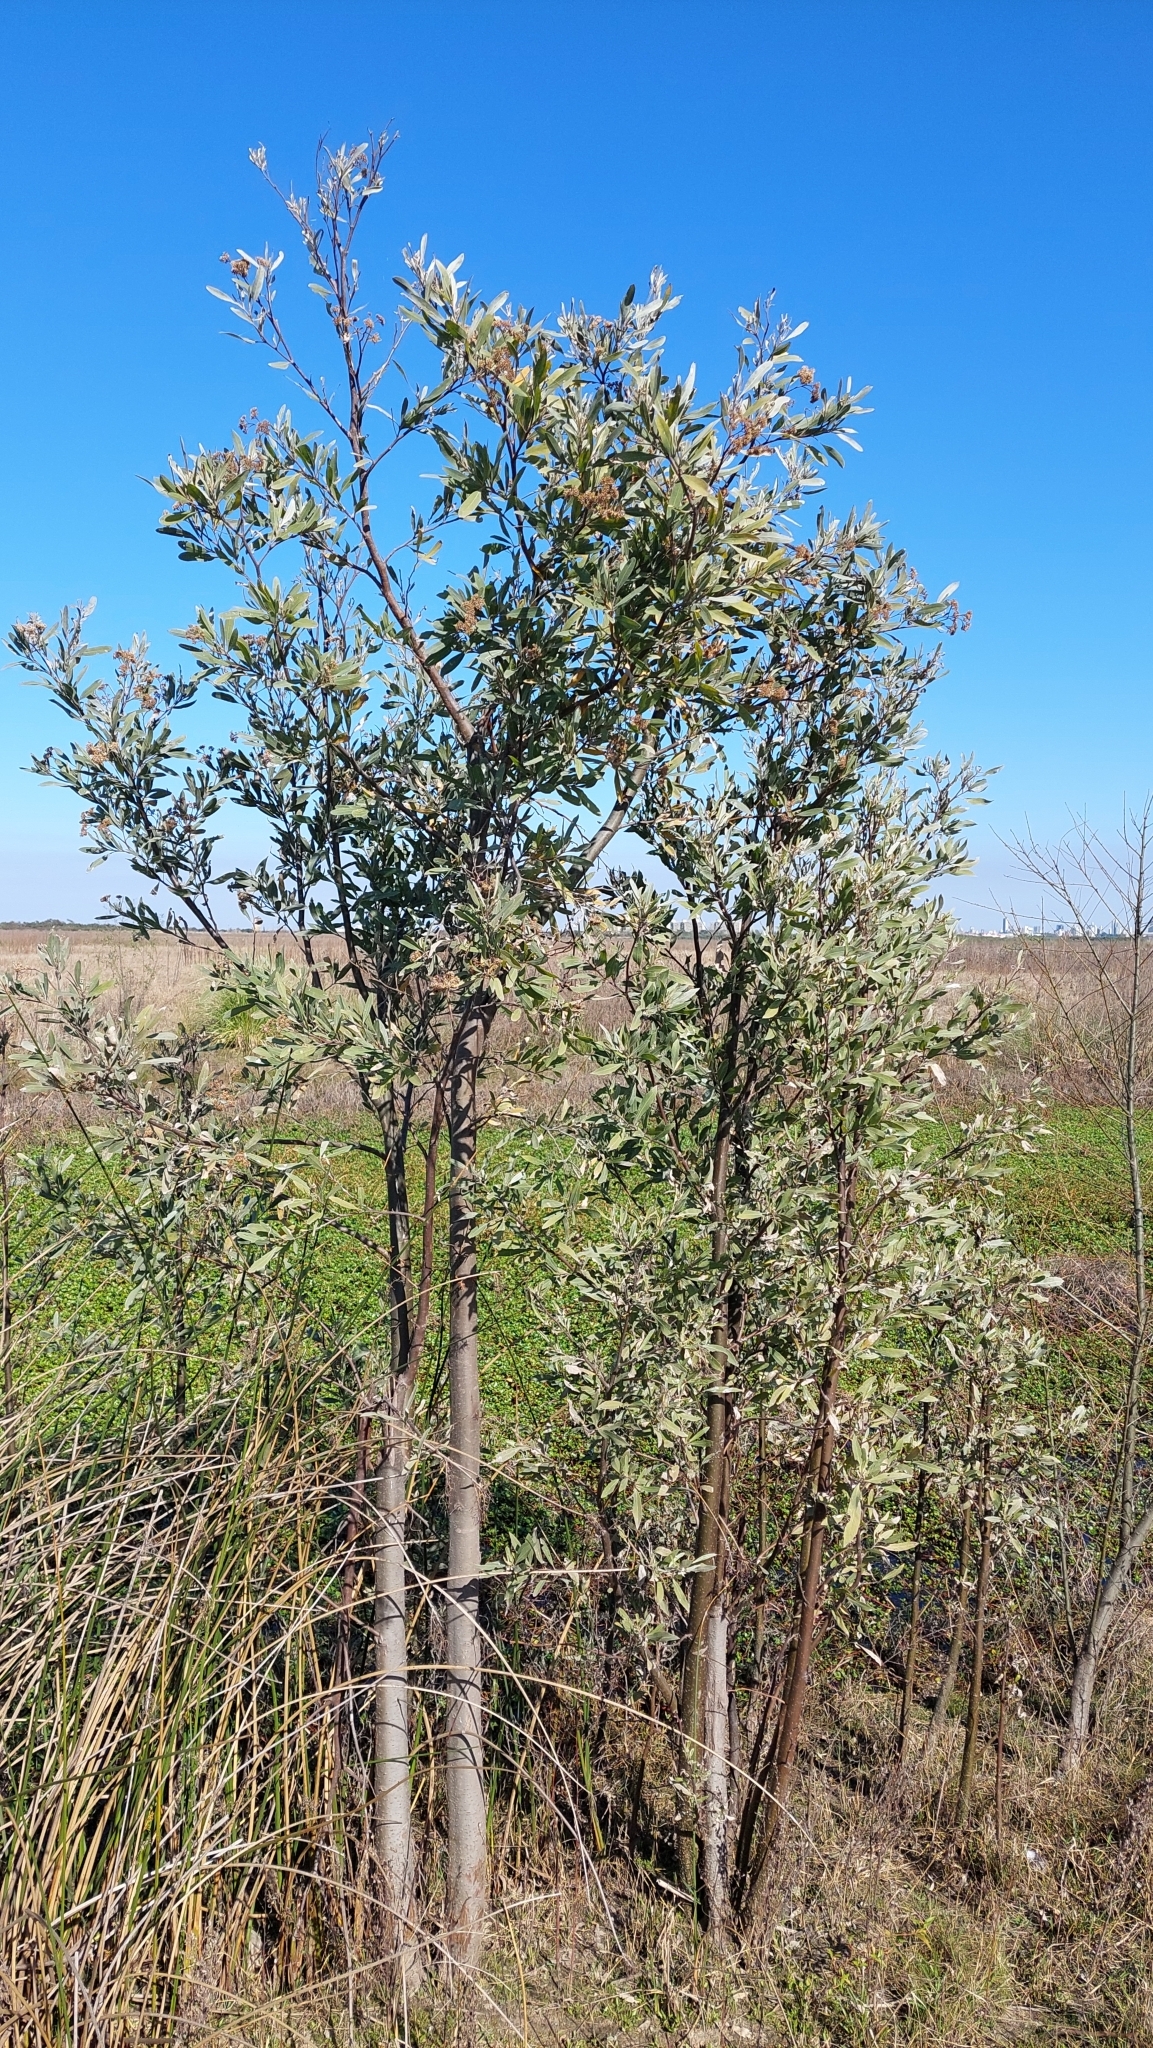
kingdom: Plantae
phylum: Tracheophyta
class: Magnoliopsida
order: Asterales
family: Asteraceae
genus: Tessaria
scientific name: Tessaria integrifolia
